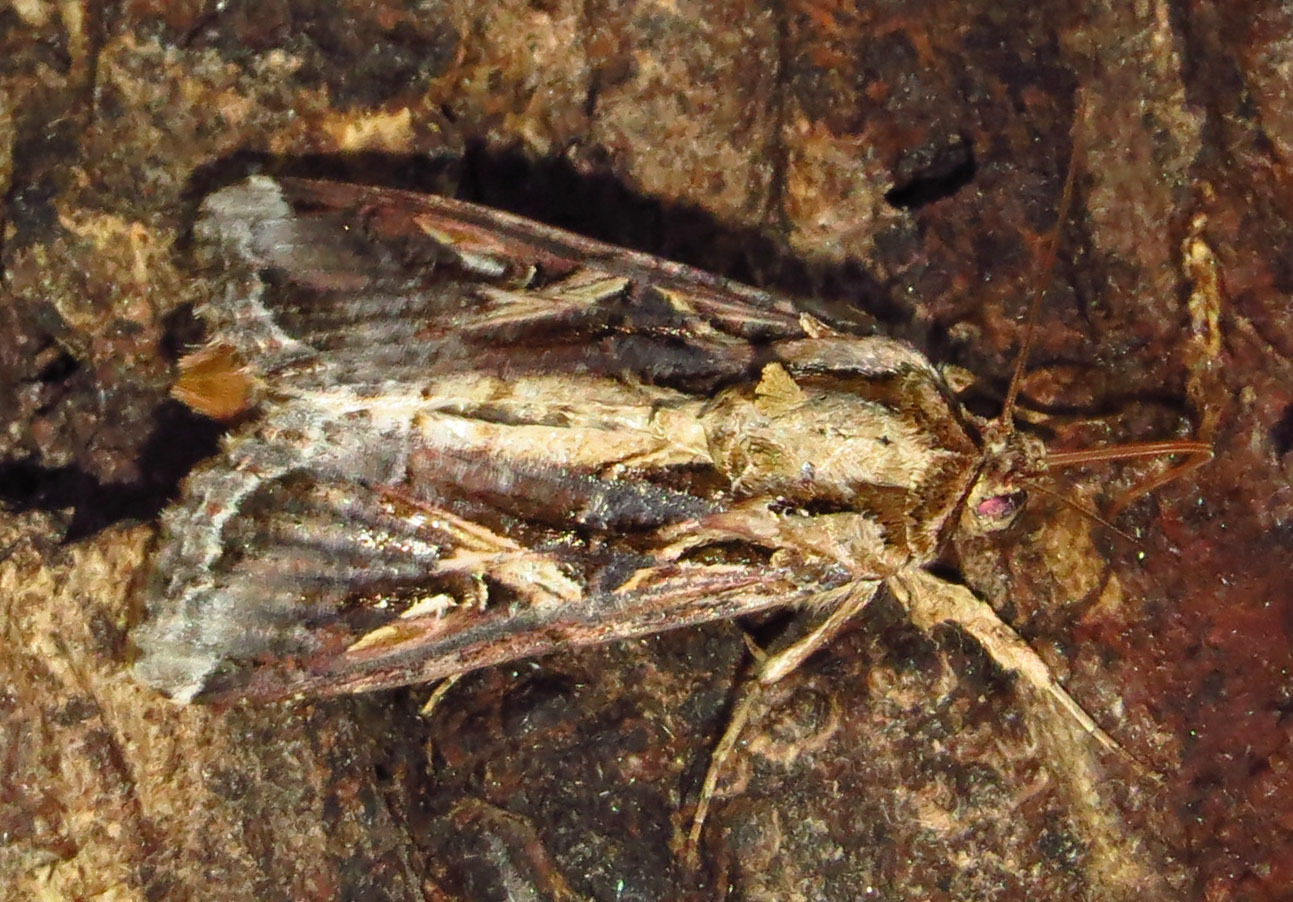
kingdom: Animalia
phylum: Arthropoda
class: Insecta
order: Lepidoptera
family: Noctuidae
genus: Spodoptera
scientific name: Spodoptera dolichos
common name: Sweetpotato armyworm
